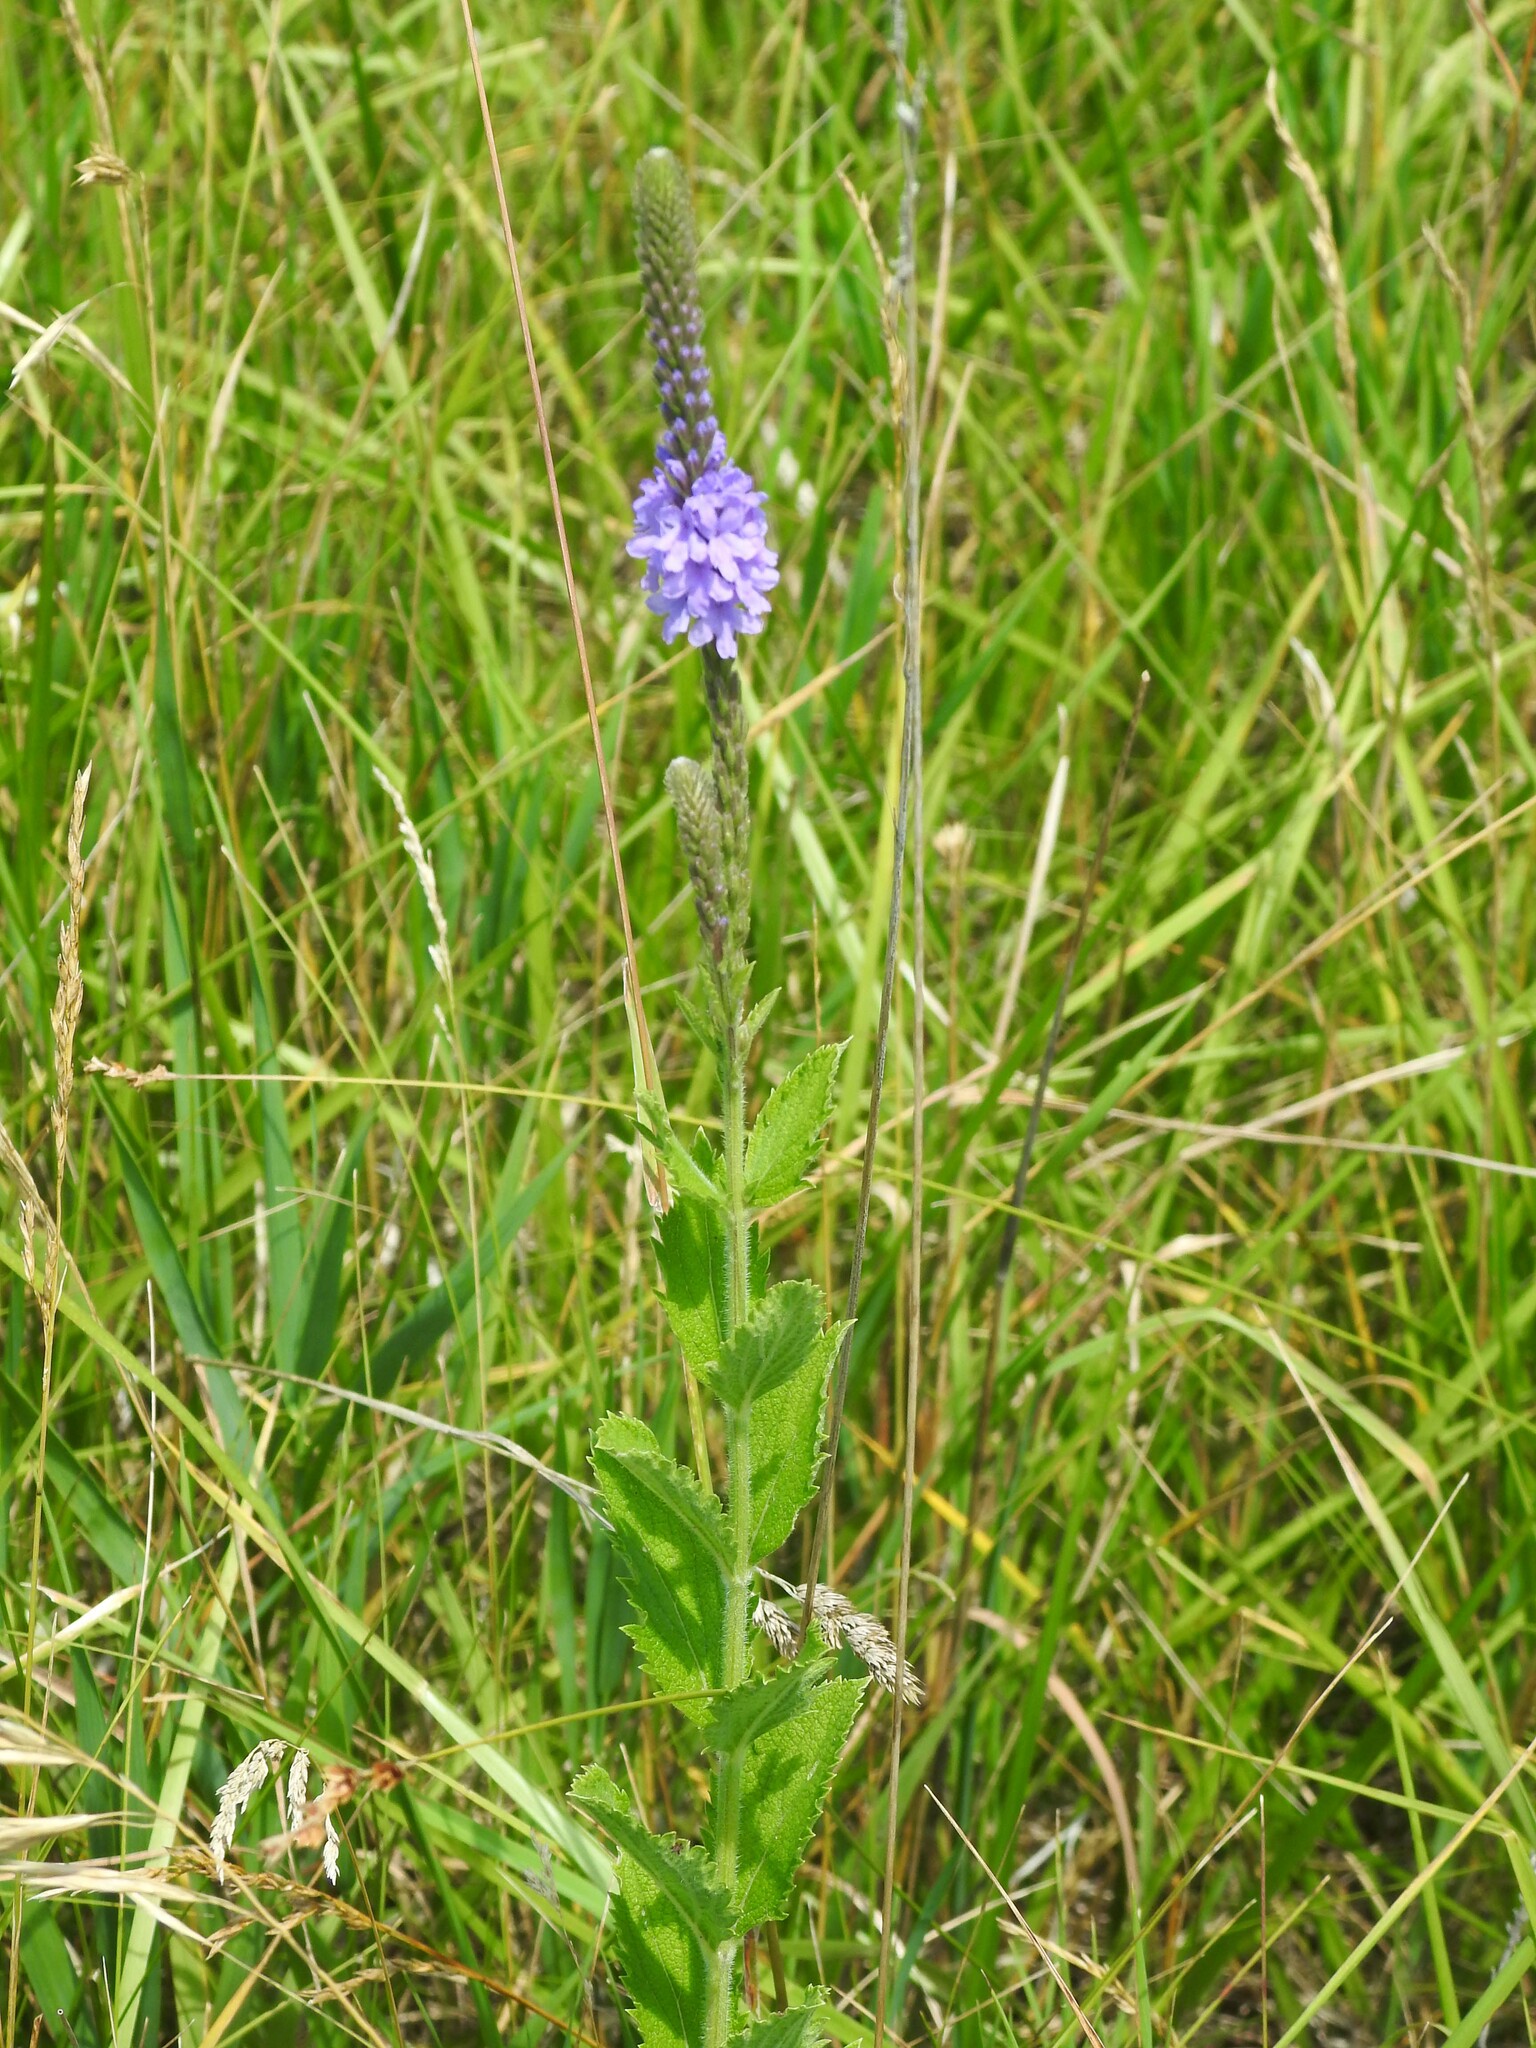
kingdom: Plantae
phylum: Tracheophyta
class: Magnoliopsida
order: Lamiales
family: Verbenaceae
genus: Verbena
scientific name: Verbena stricta
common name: Hoary vervain
